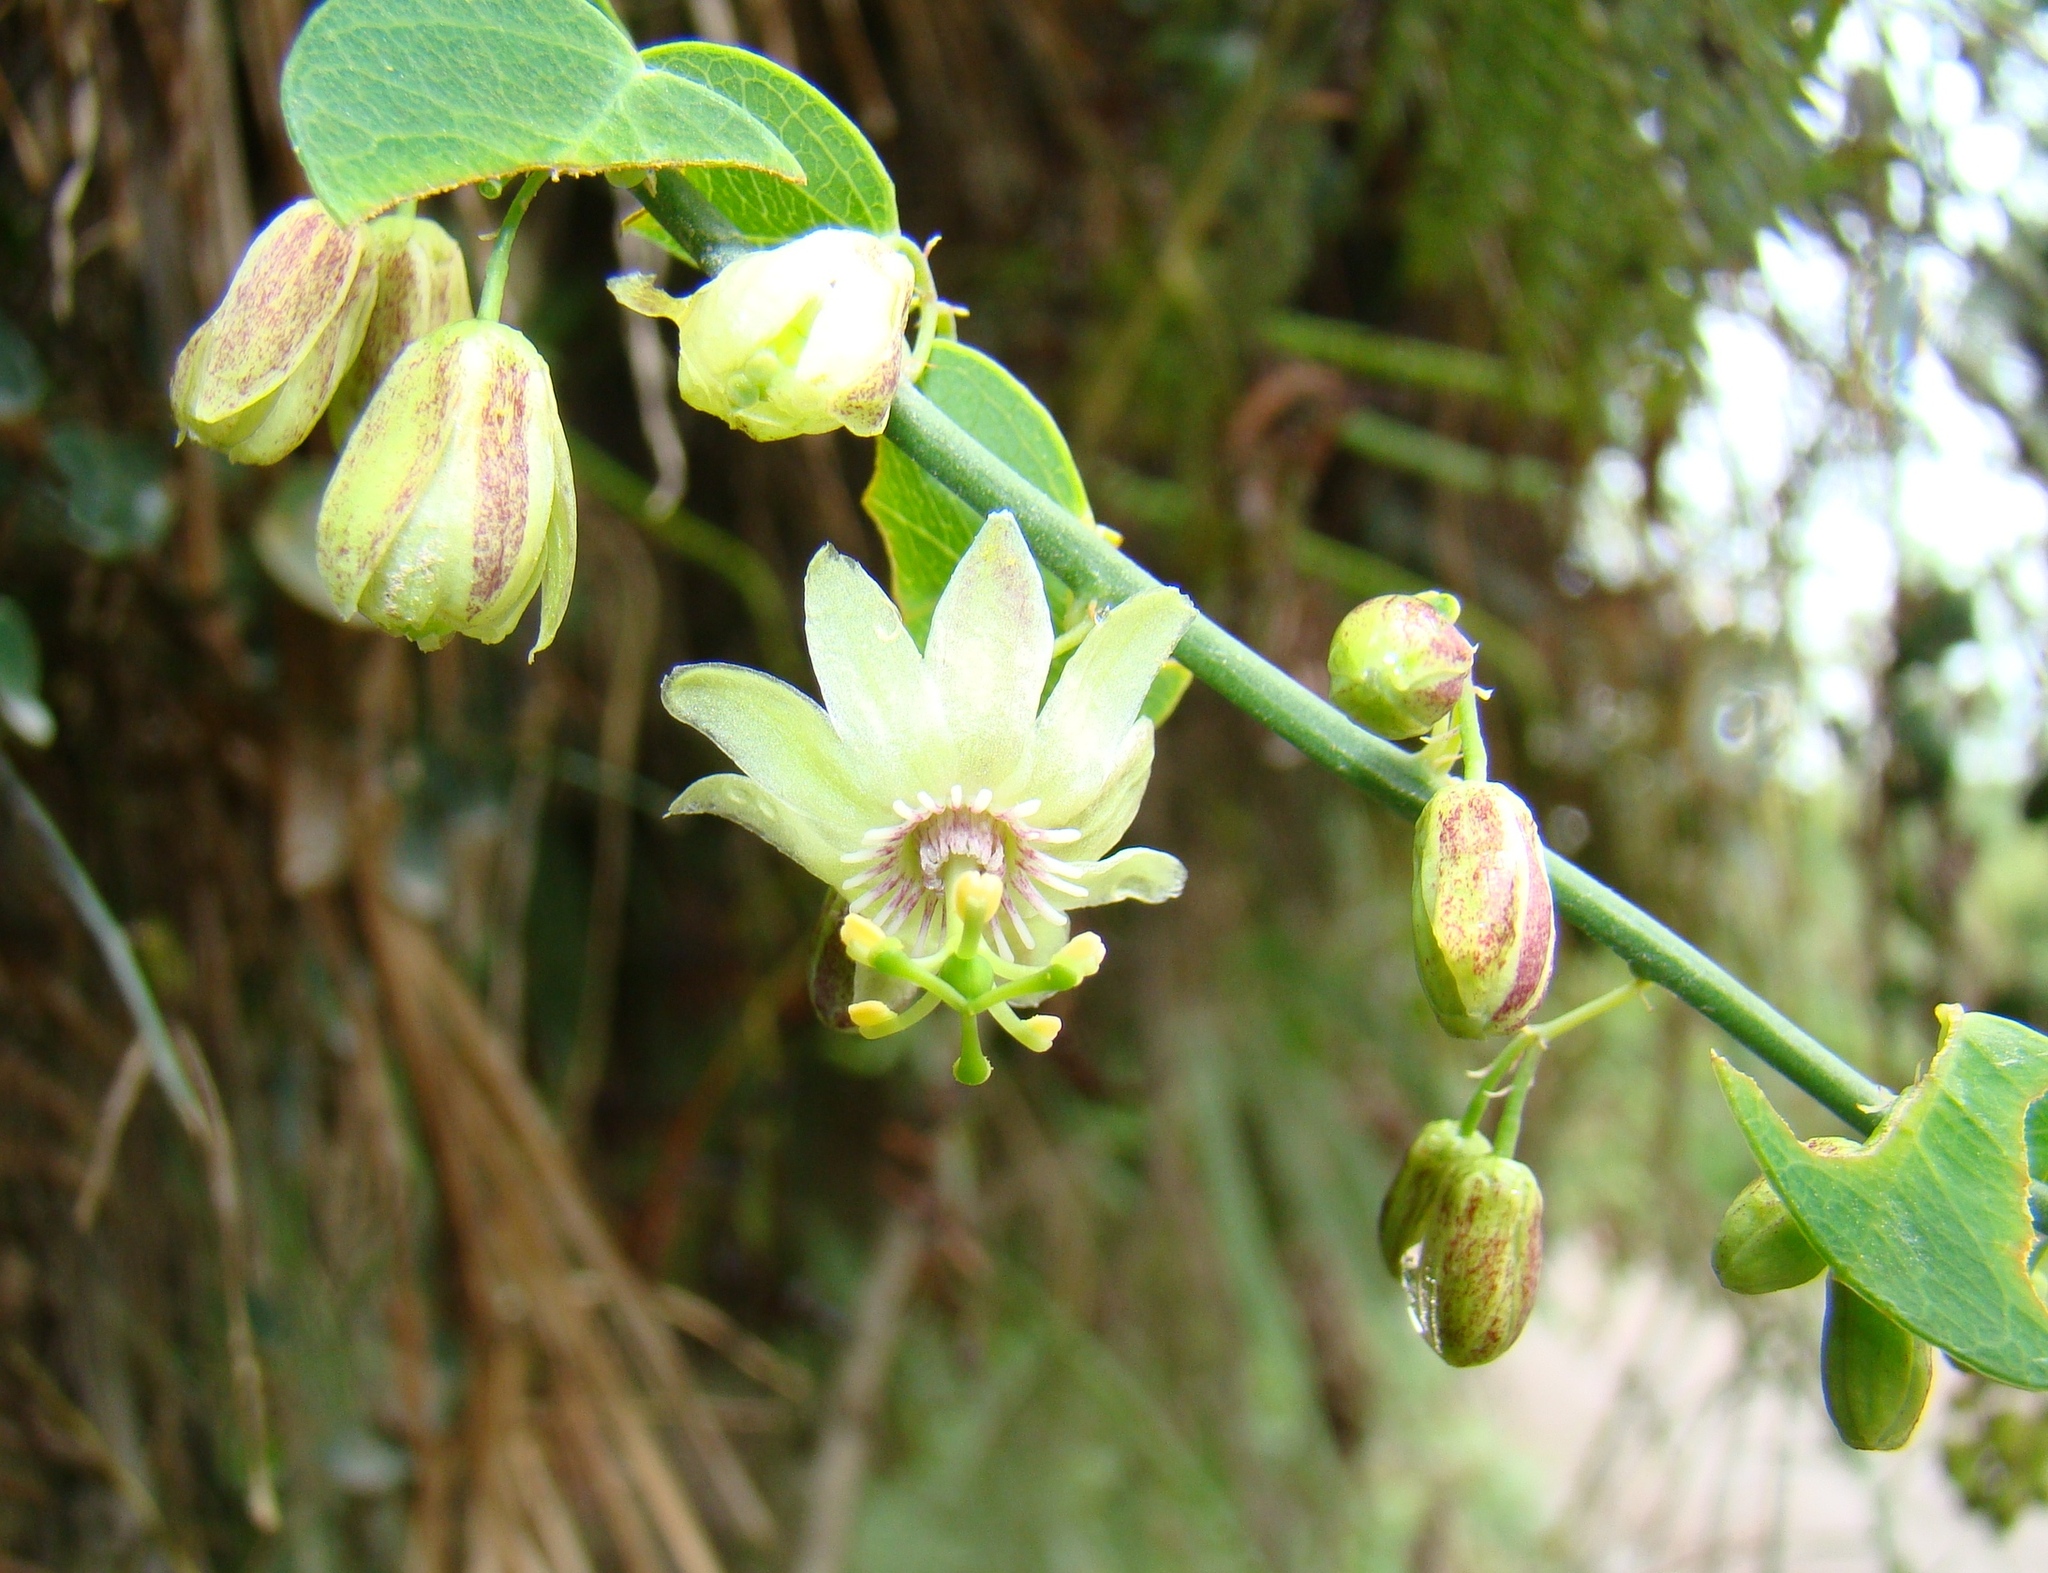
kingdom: Plantae
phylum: Tracheophyta
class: Magnoliopsida
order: Malpighiales
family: Passifloraceae
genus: Passiflora
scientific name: Passiflora tryphostemmatoides
